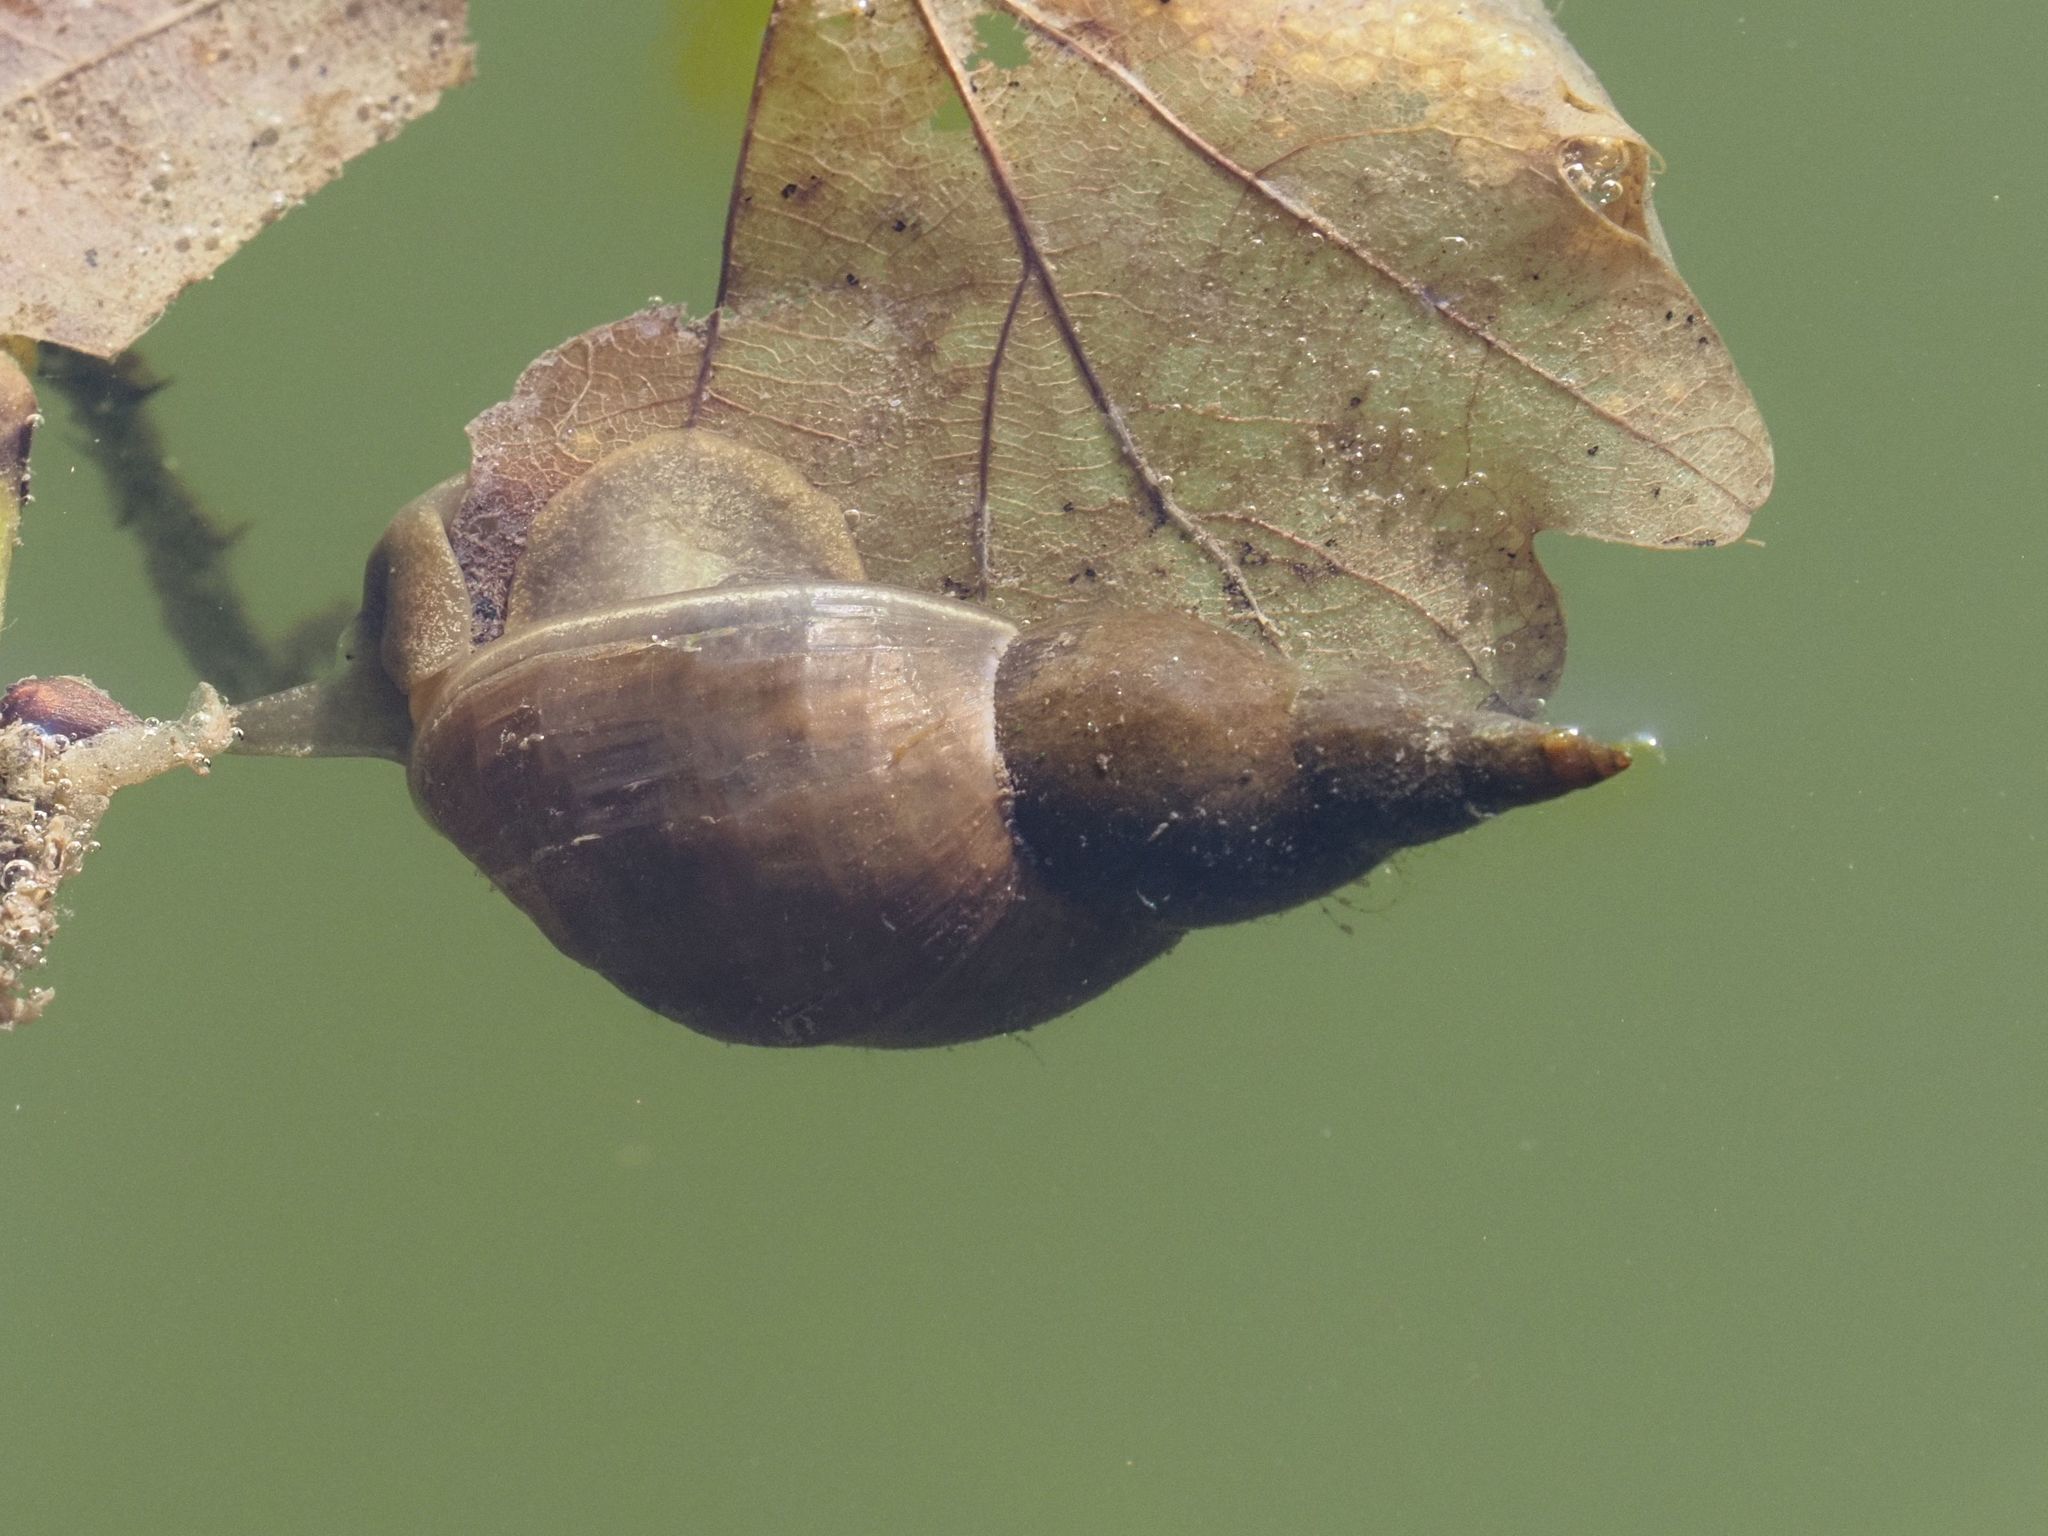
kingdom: Animalia
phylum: Mollusca
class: Gastropoda
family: Lymnaeidae
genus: Lymnaea
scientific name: Lymnaea stagnalis
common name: Great pond snail
